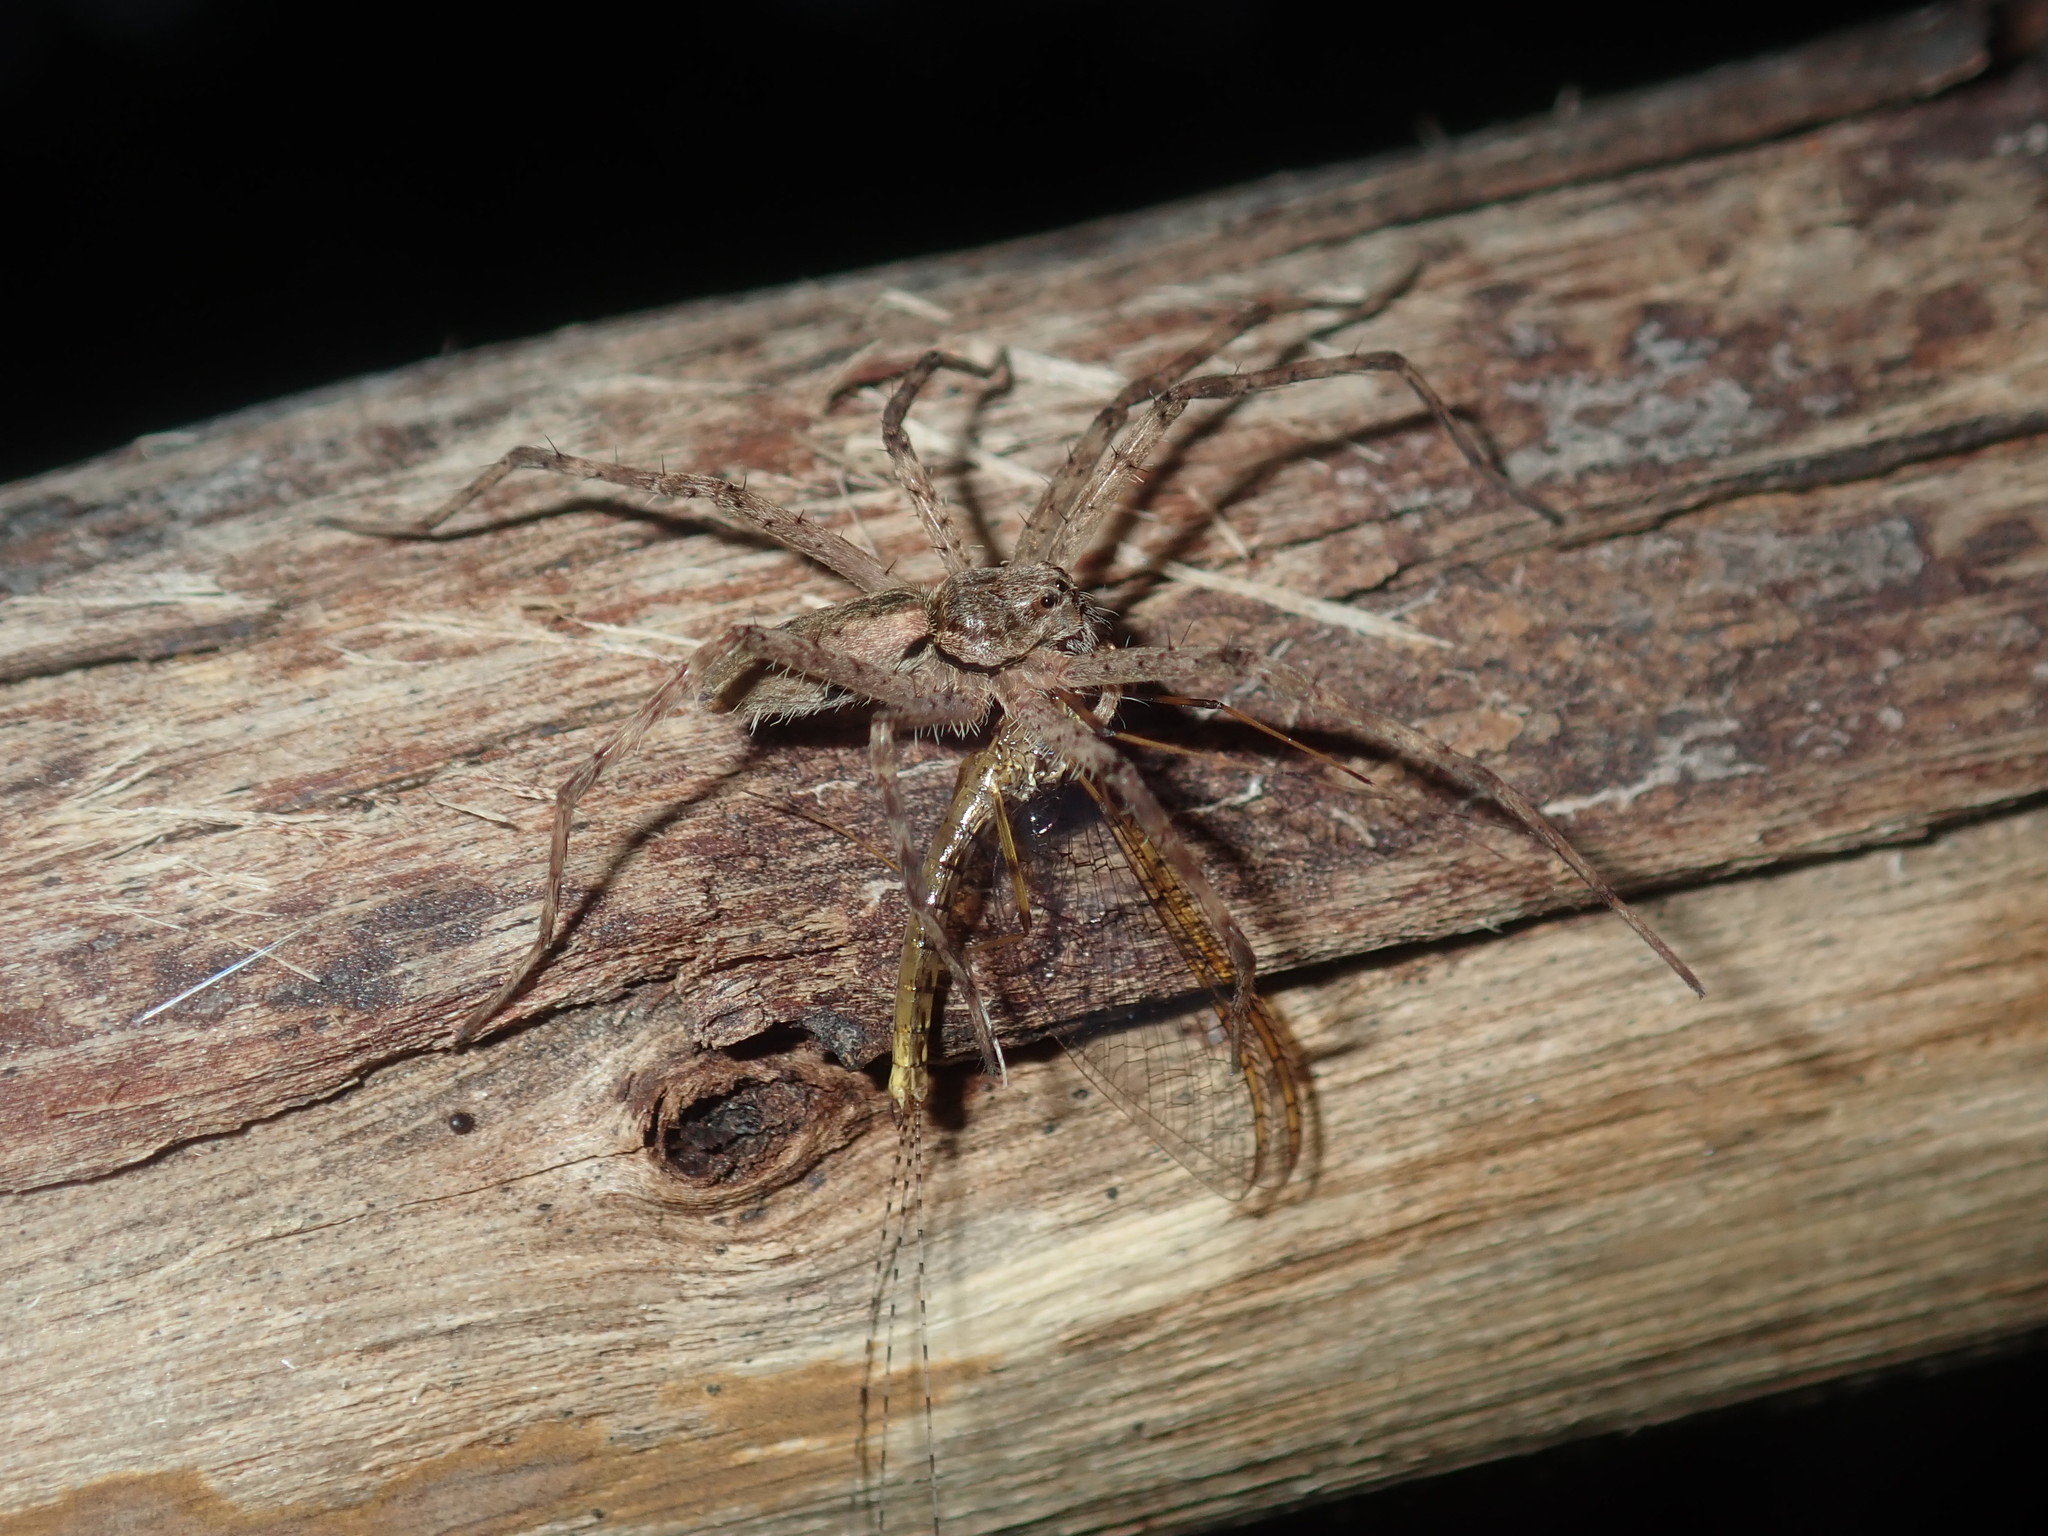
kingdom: Animalia
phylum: Arthropoda
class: Arachnida
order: Araneae
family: Pisauridae
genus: Megadolomedes
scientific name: Megadolomedes trux
